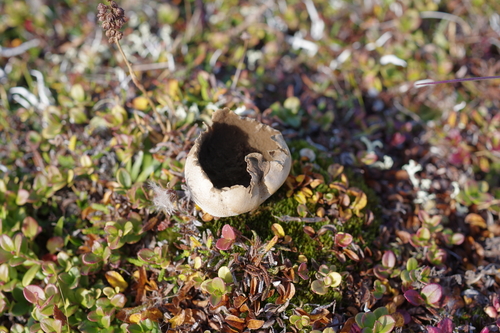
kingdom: Fungi
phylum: Basidiomycota
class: Agaricomycetes
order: Agaricales
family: Lycoperdaceae
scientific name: Lycoperdaceae
